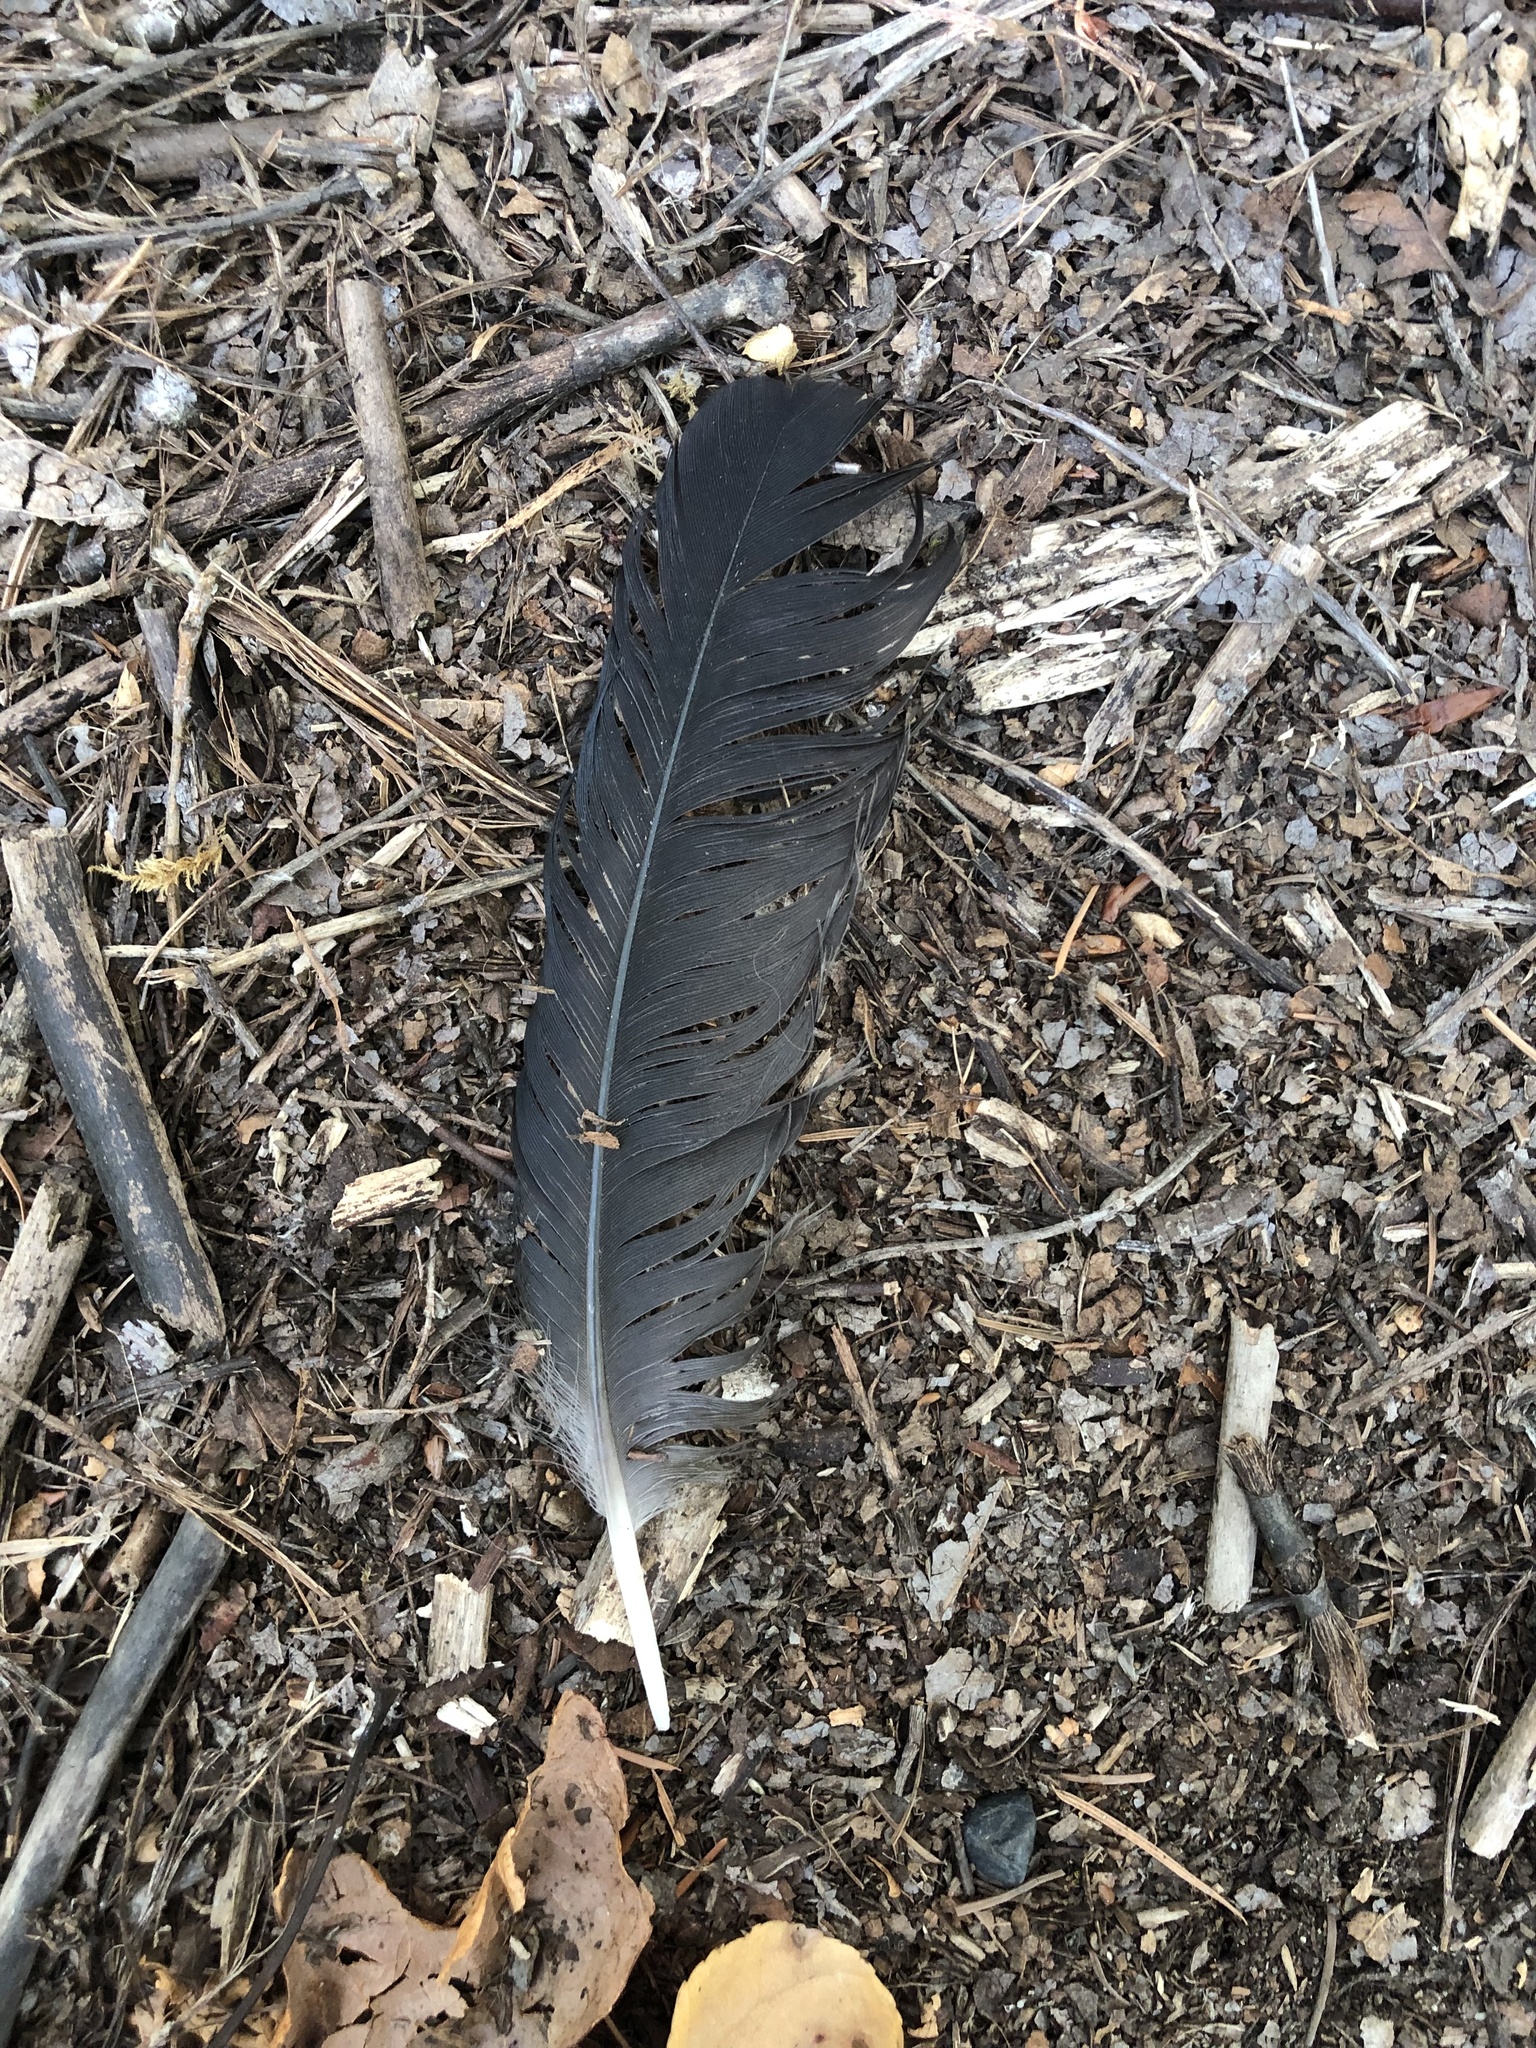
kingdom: Animalia
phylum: Chordata
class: Aves
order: Passeriformes
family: Corvidae
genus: Corvus
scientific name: Corvus brachyrhynchos
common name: American crow
